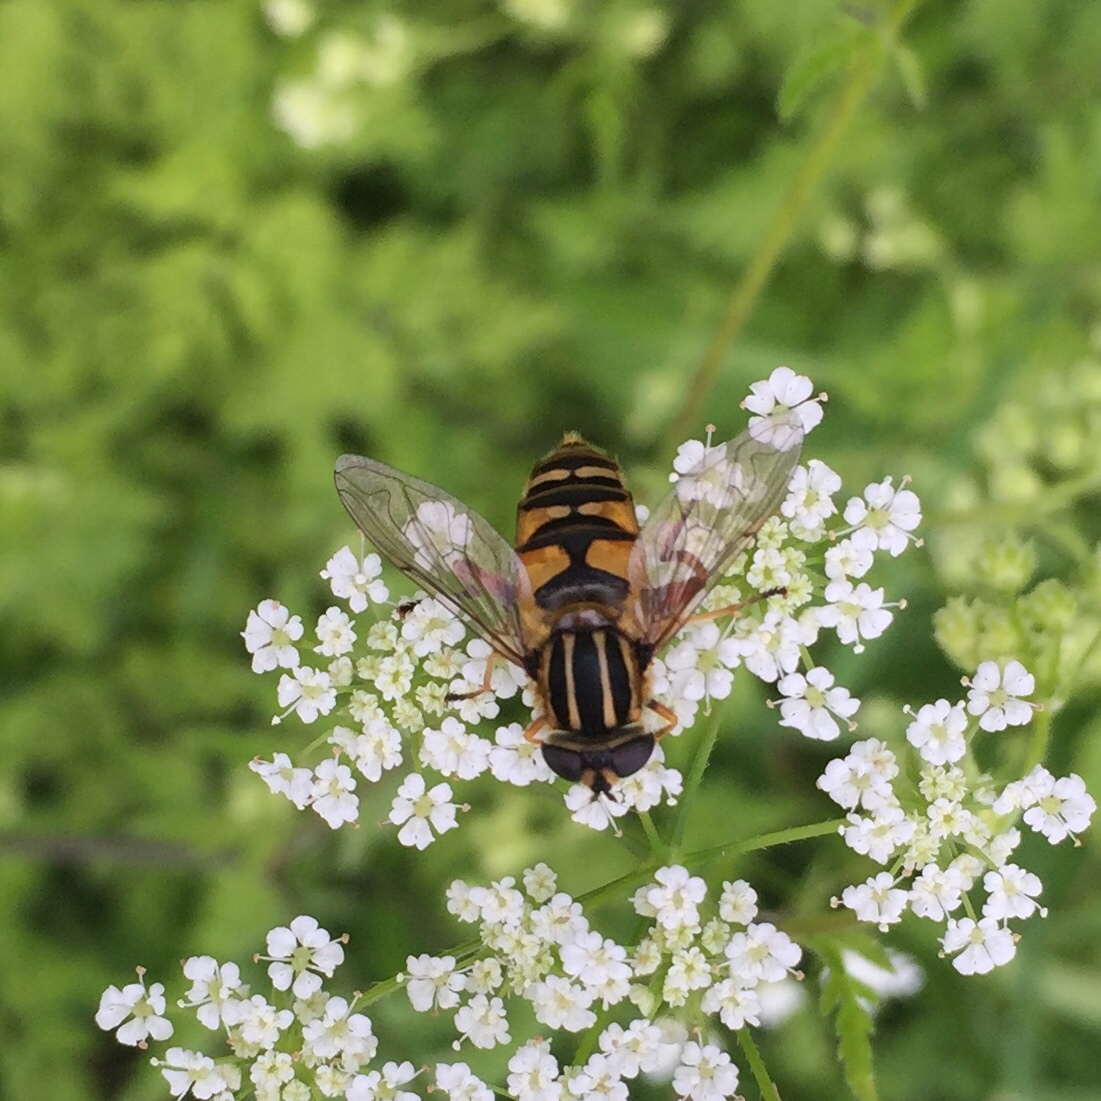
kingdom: Animalia
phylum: Arthropoda
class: Insecta
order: Diptera
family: Syrphidae
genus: Helophilus
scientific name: Helophilus pendulus
